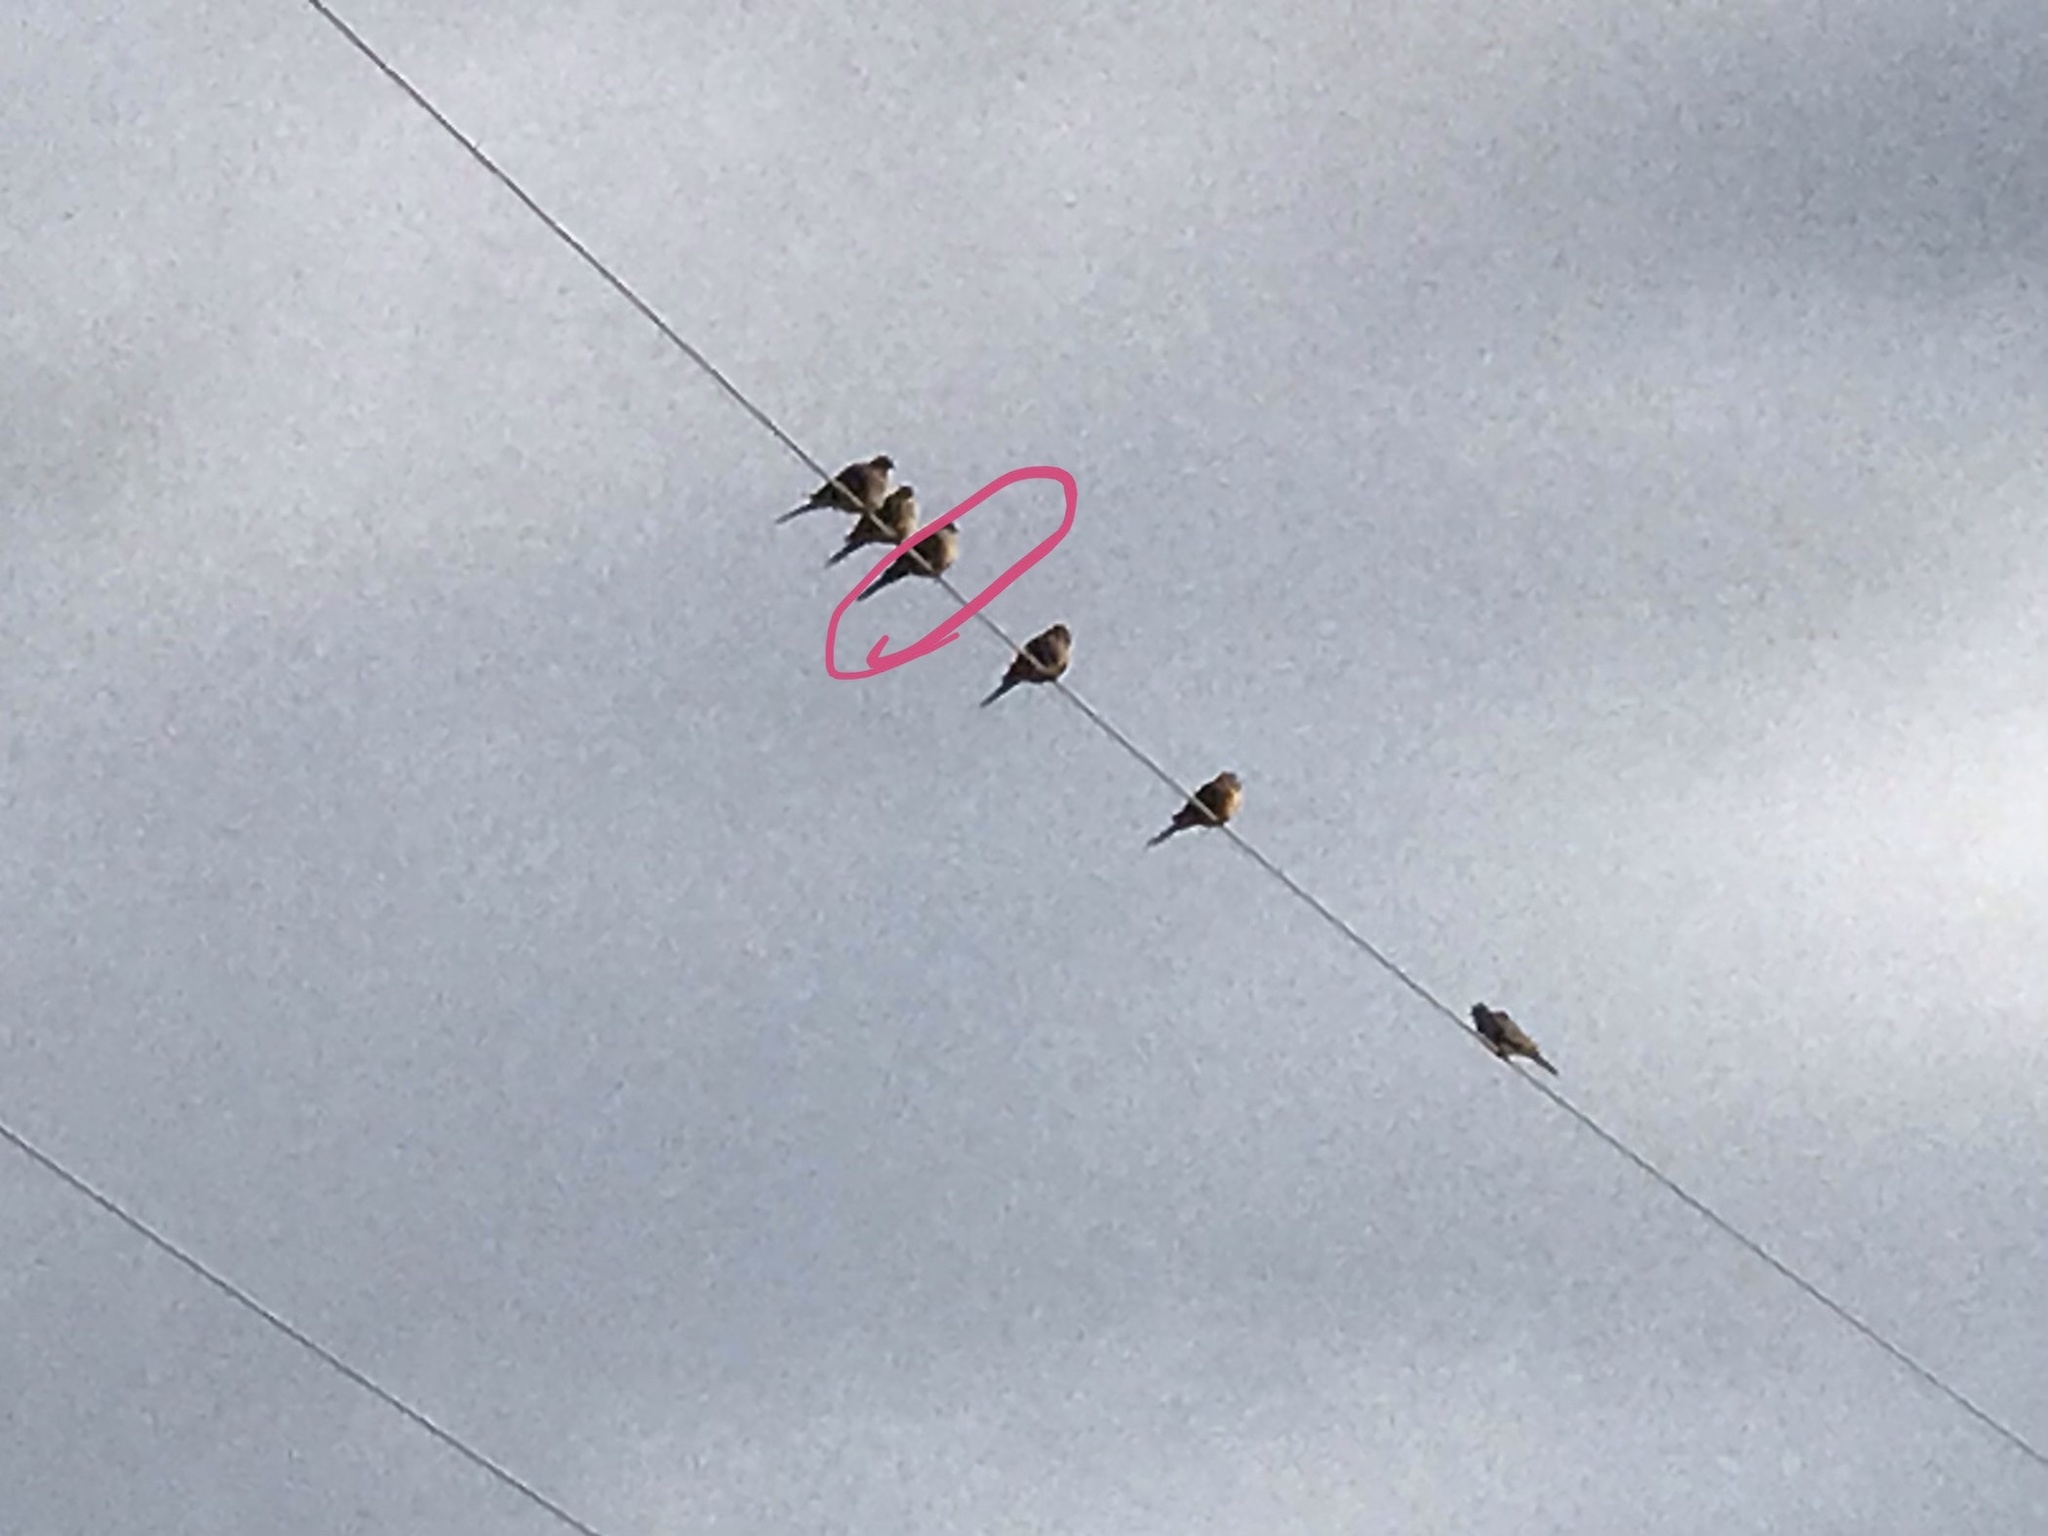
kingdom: Animalia
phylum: Chordata
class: Aves
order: Columbiformes
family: Columbidae
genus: Zenaida
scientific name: Zenaida macroura
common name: Mourning dove
